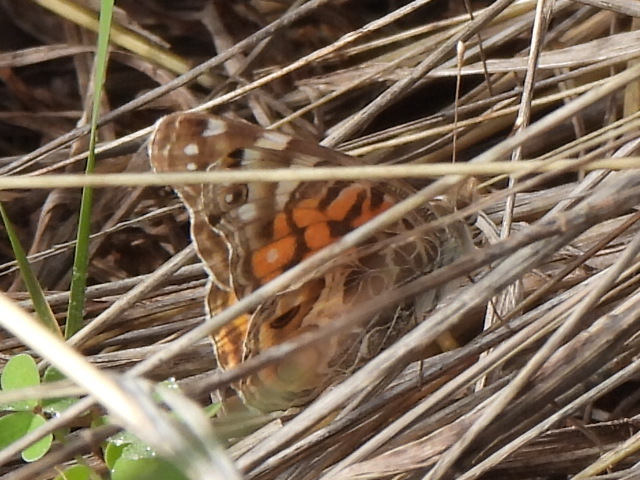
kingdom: Animalia
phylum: Arthropoda
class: Insecta
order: Lepidoptera
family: Nymphalidae
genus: Vanessa
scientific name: Vanessa virginiensis
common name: American lady
